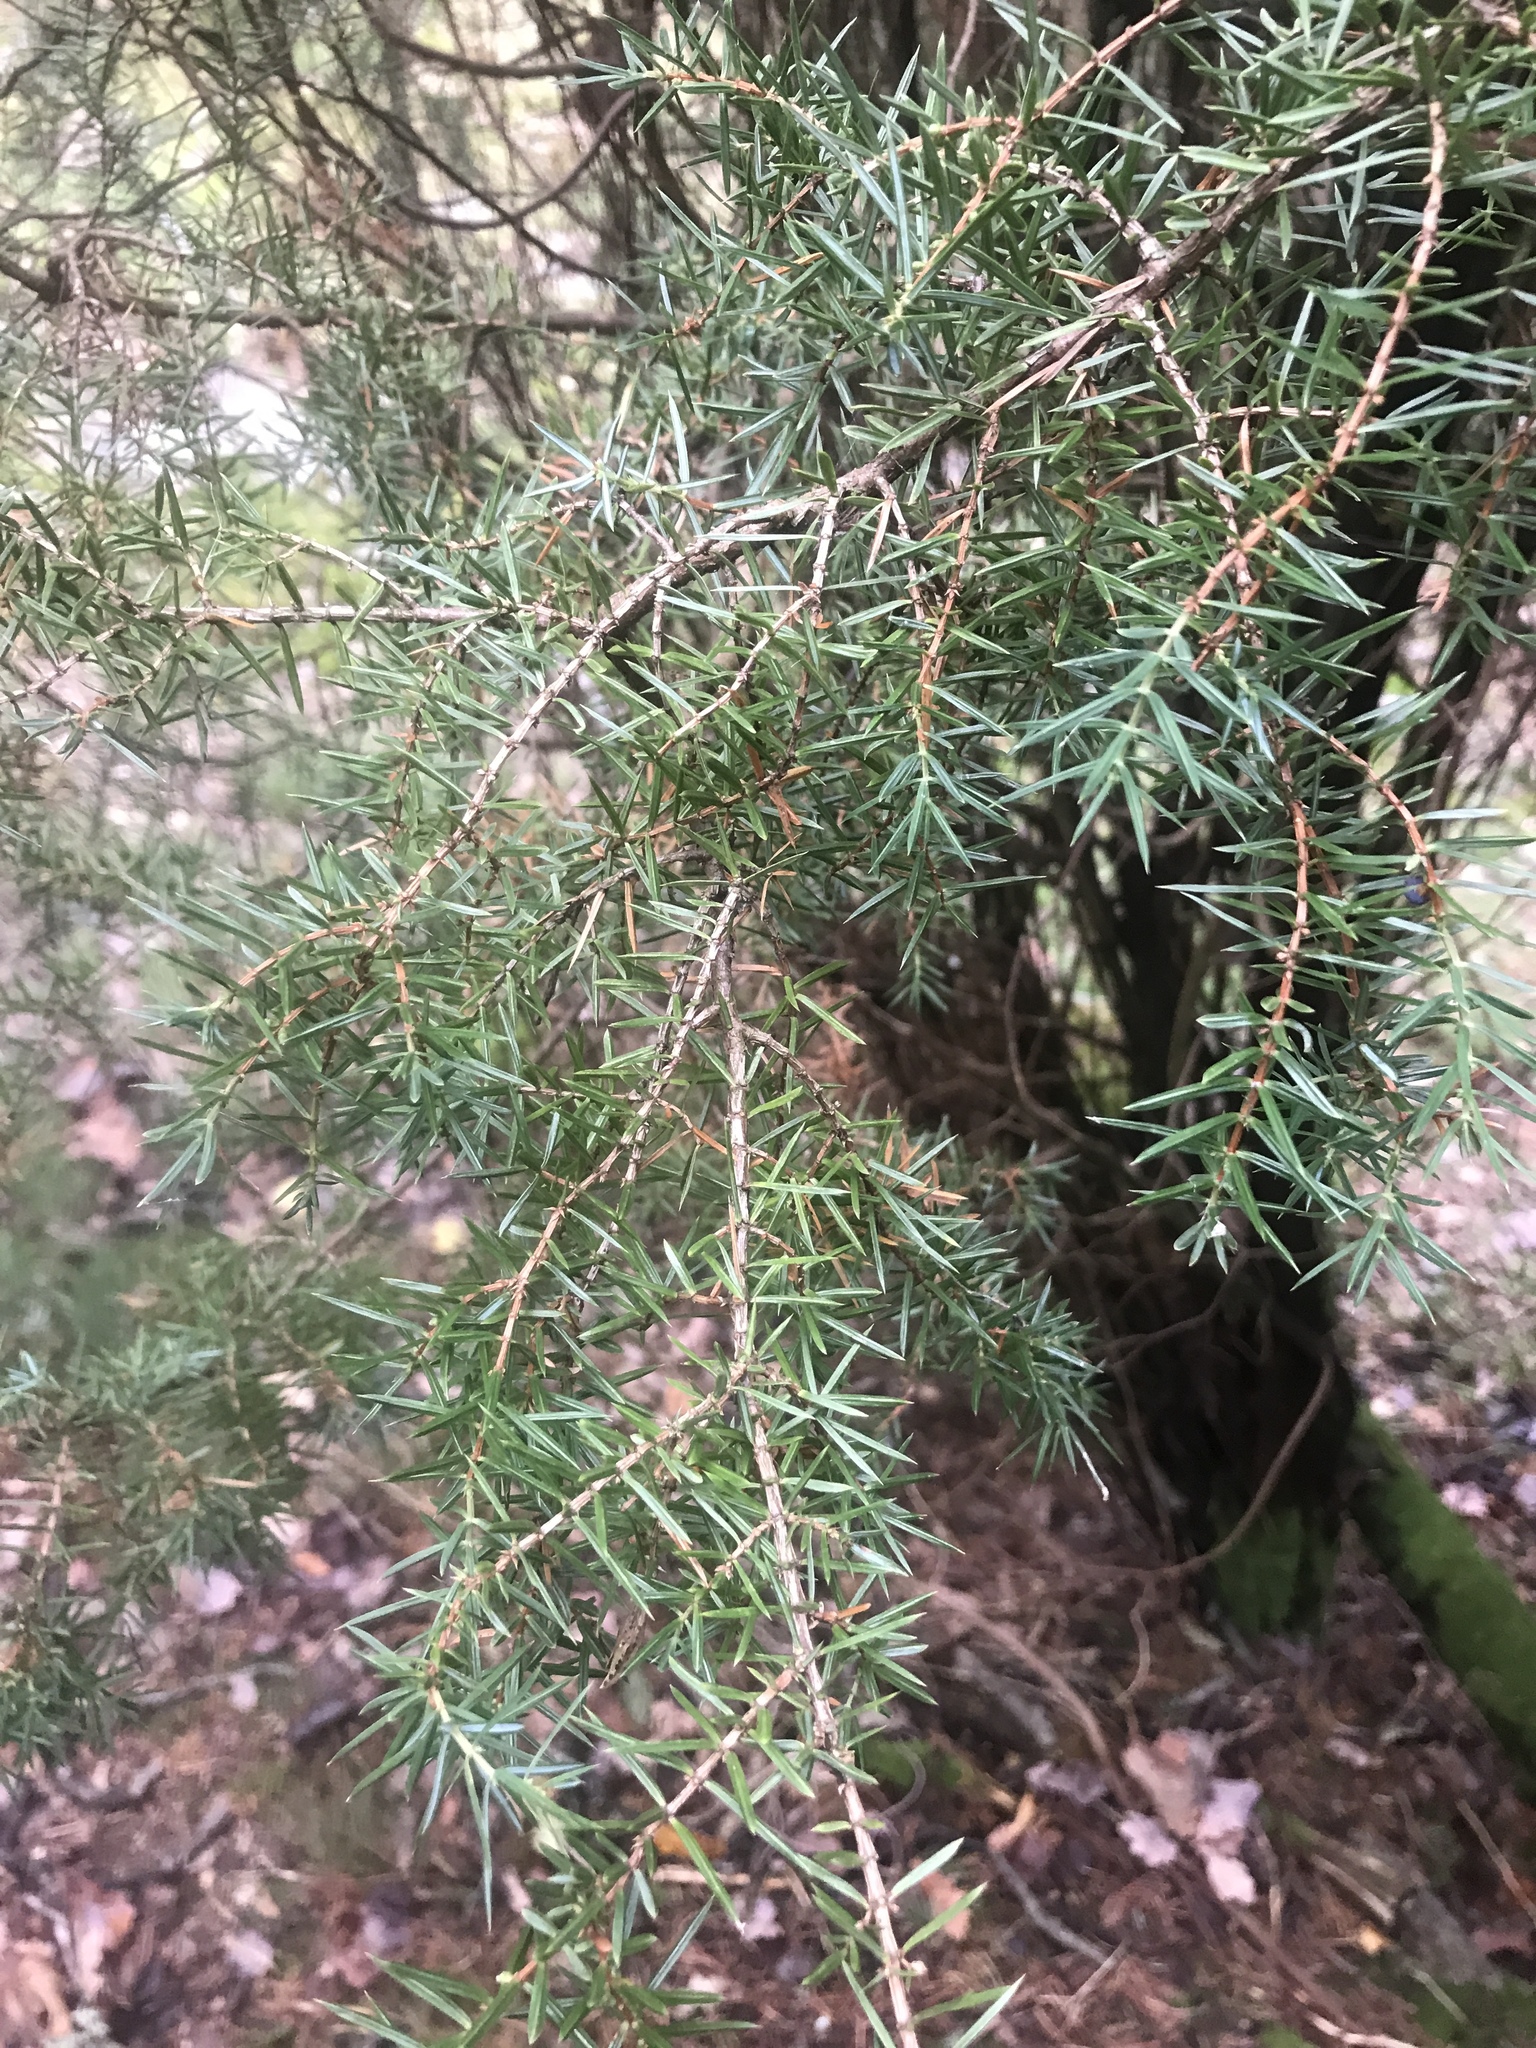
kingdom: Plantae
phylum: Tracheophyta
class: Pinopsida
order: Pinales
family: Cupressaceae
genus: Juniperus
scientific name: Juniperus communis
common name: Common juniper
